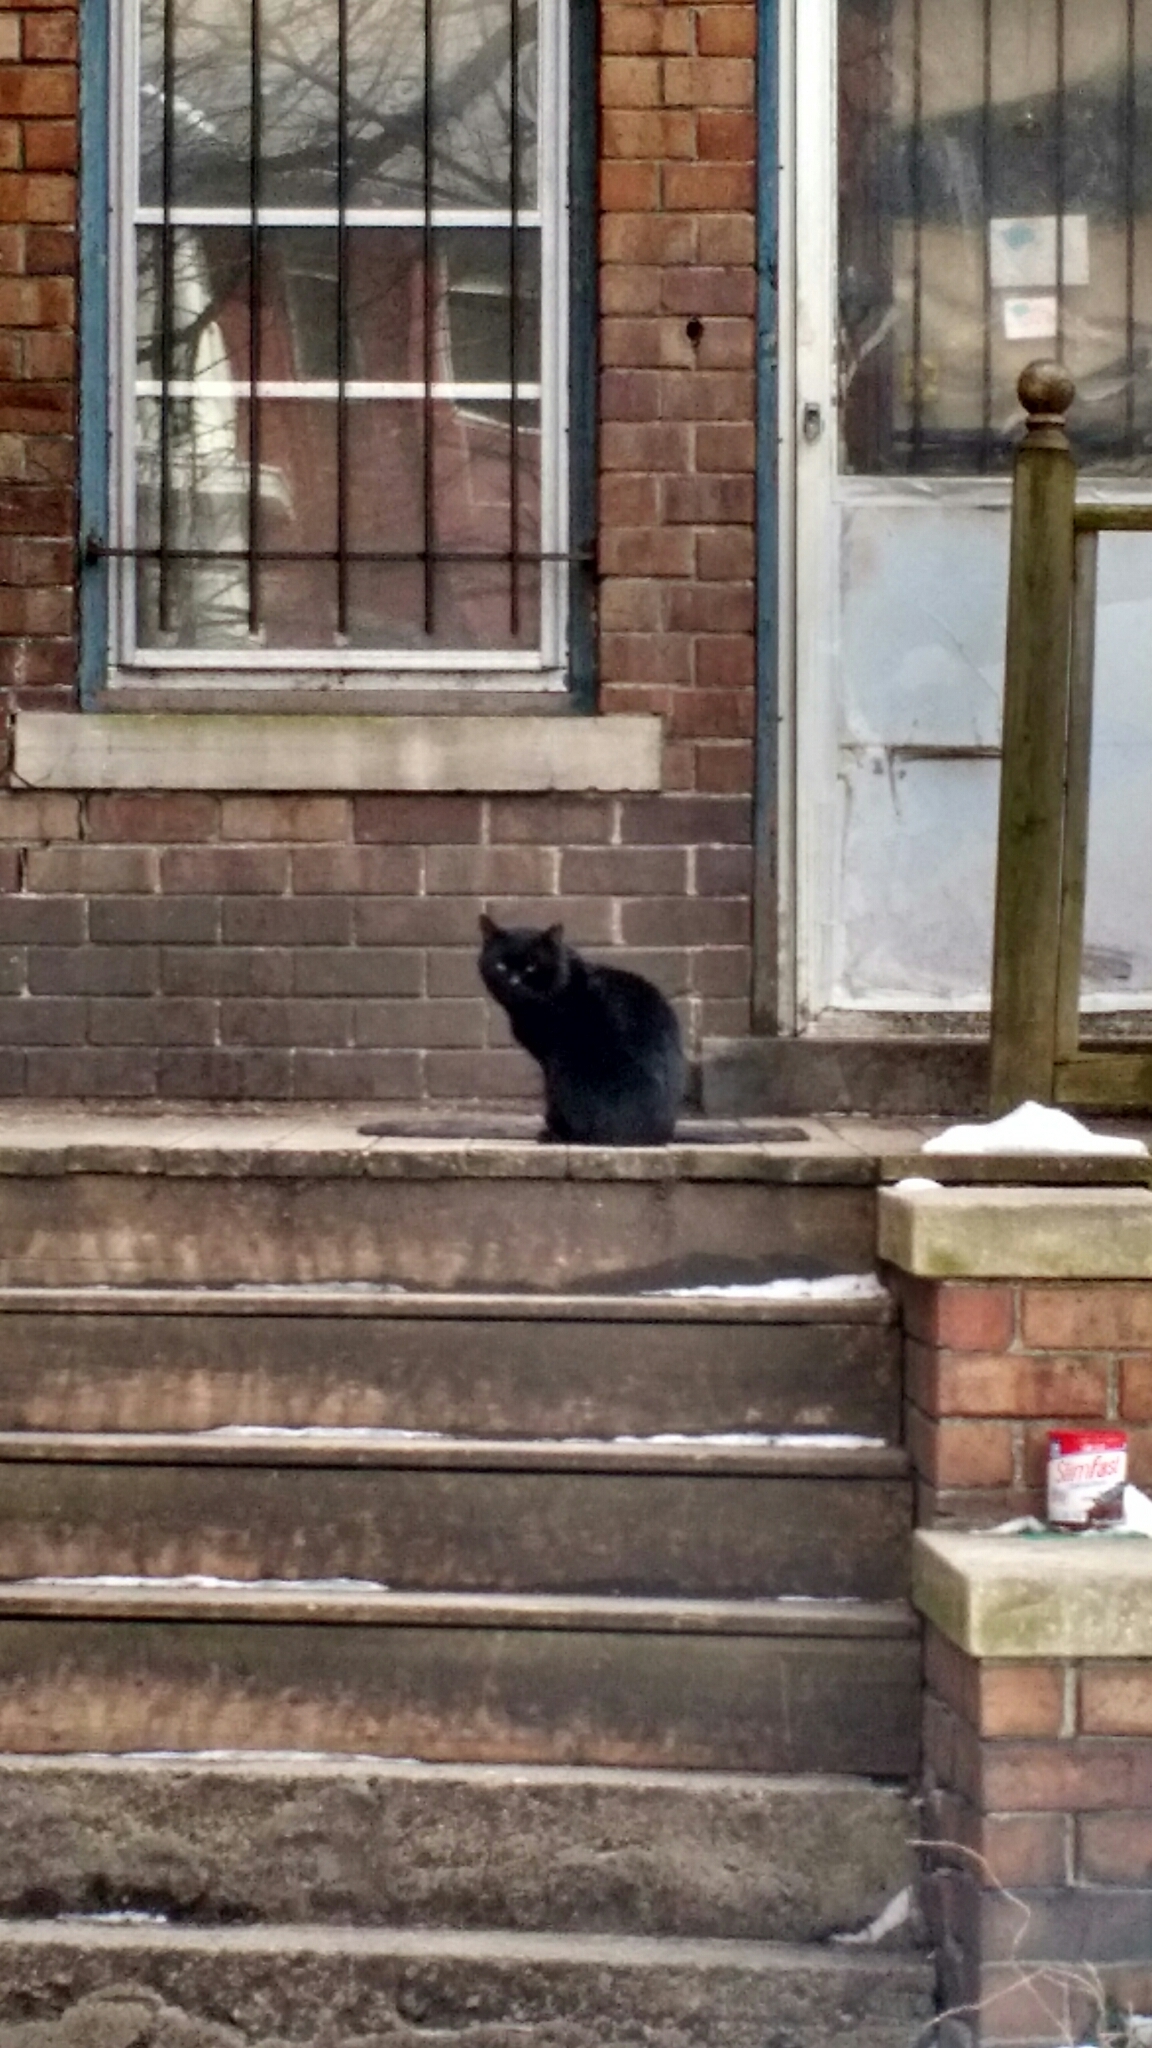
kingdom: Animalia
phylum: Chordata
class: Mammalia
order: Carnivora
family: Felidae
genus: Felis
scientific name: Felis catus
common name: Domestic cat
